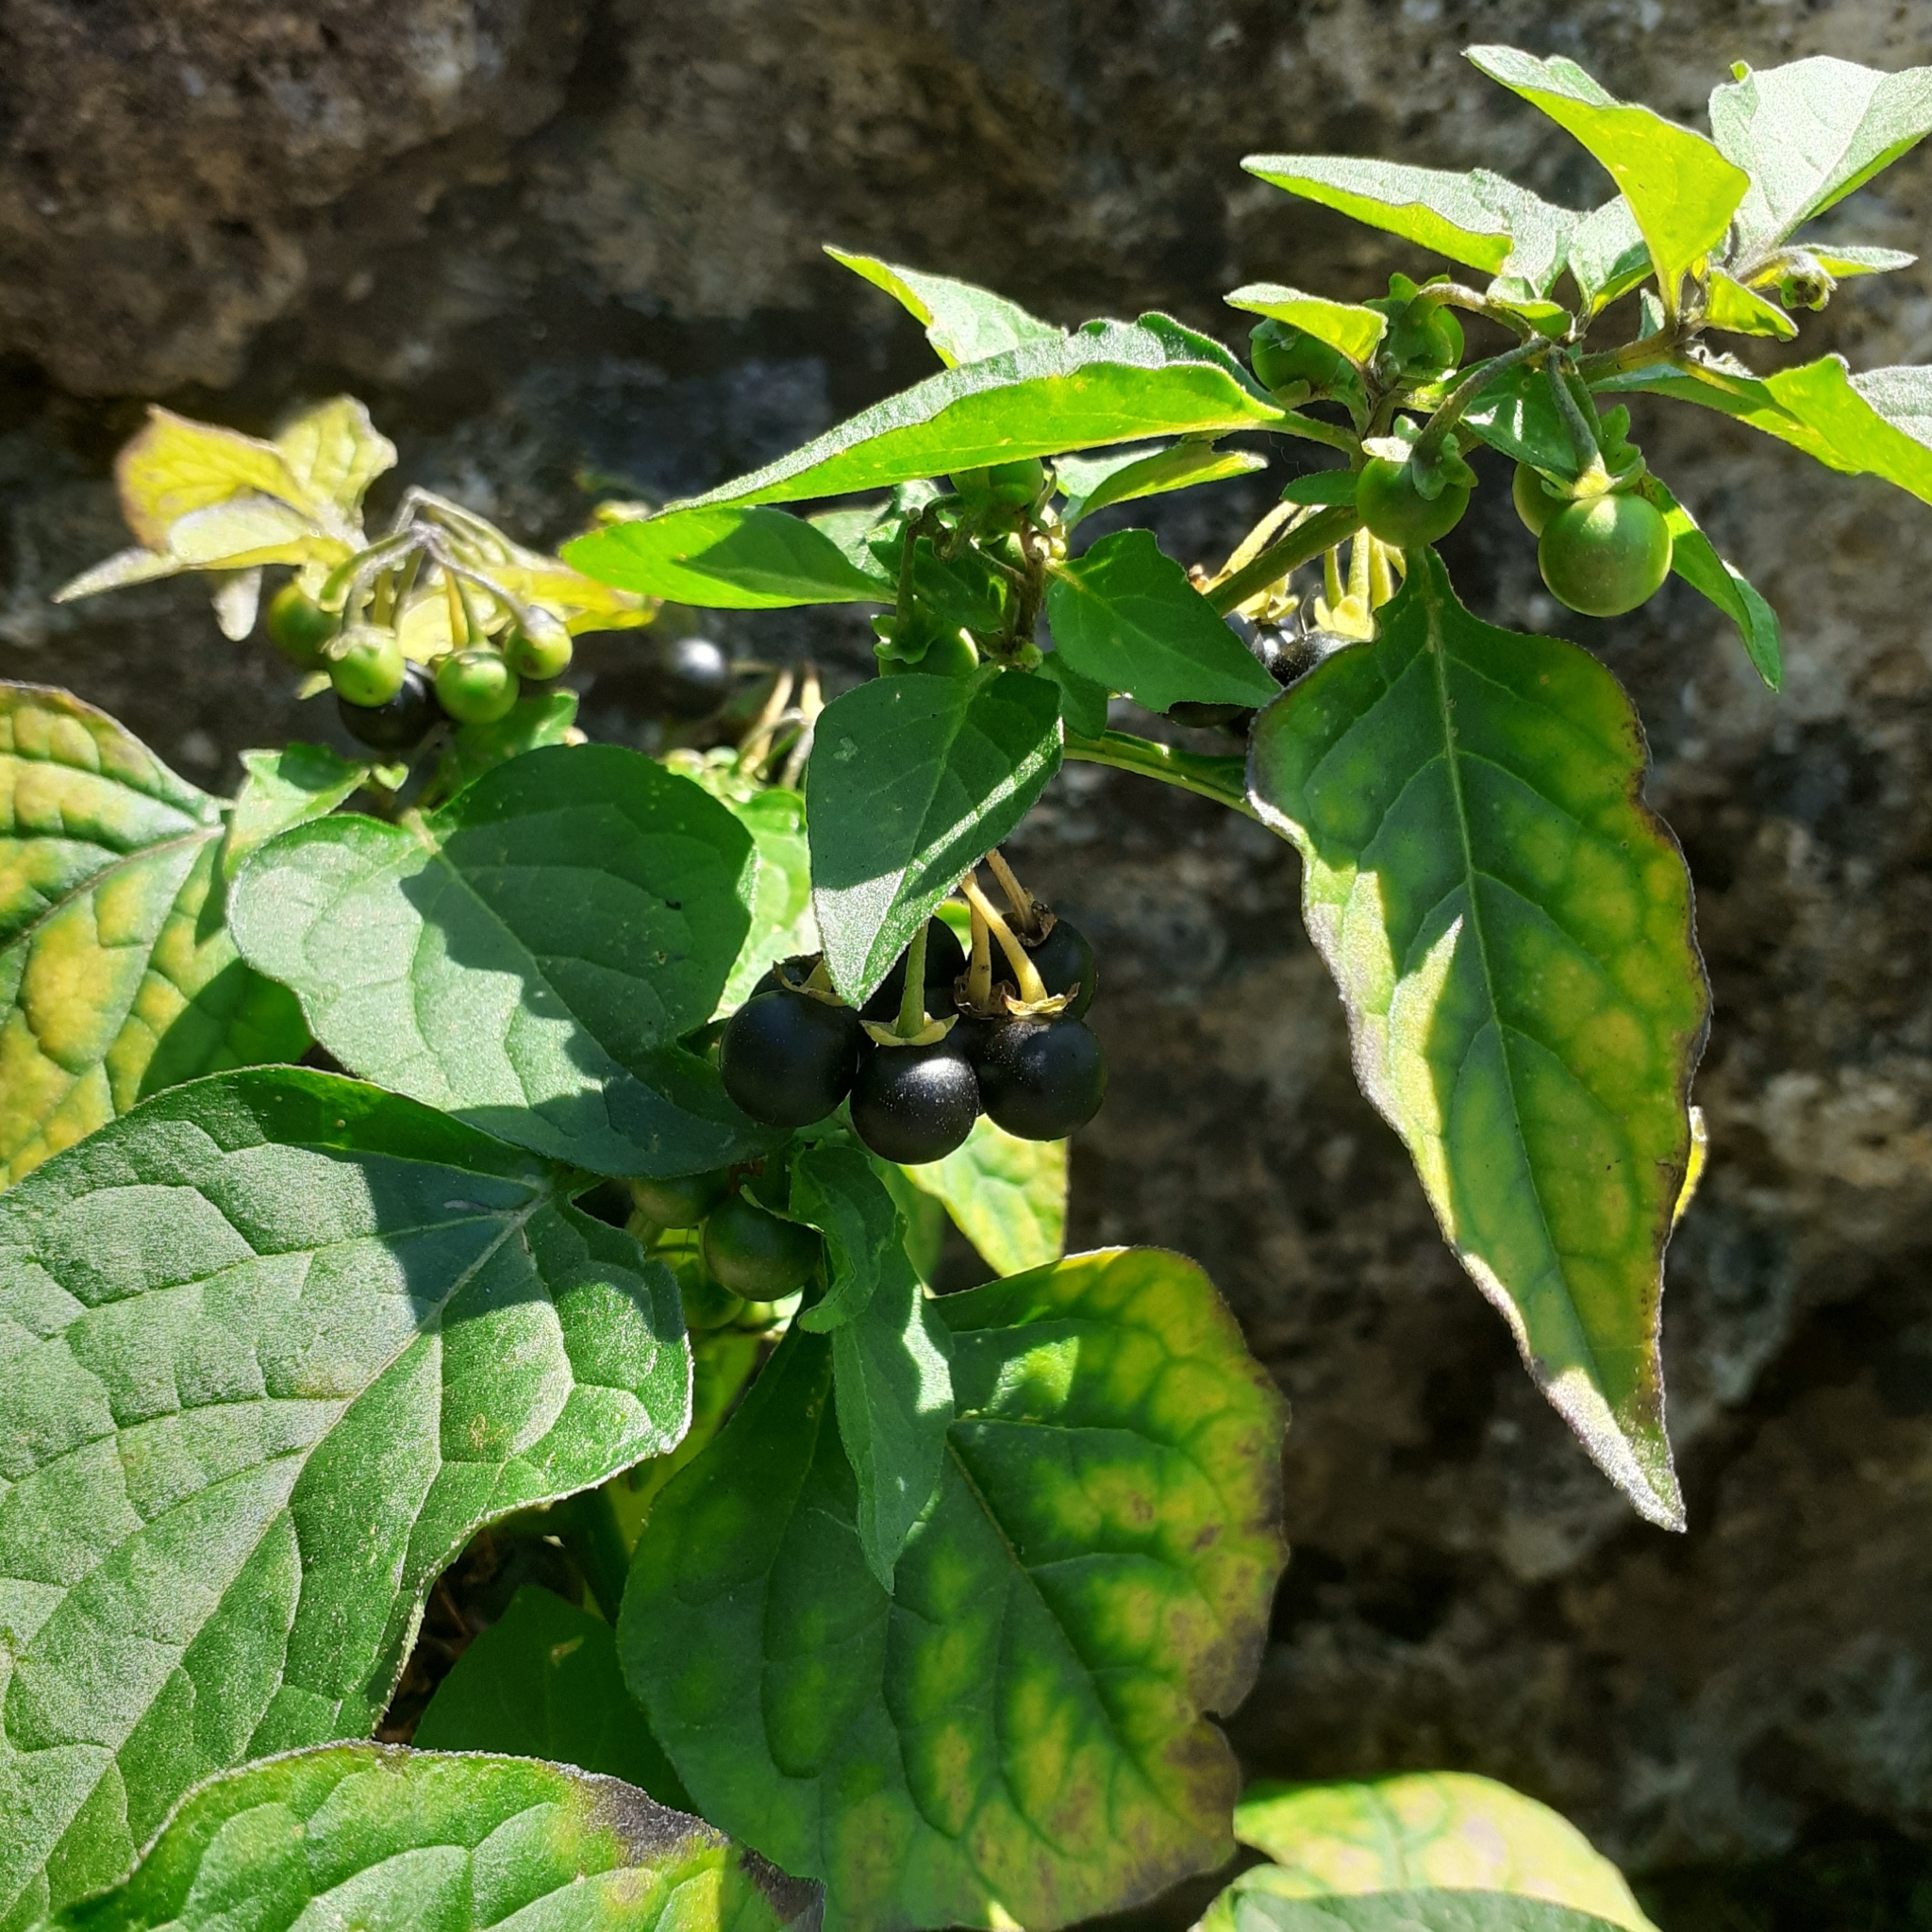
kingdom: Plantae
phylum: Tracheophyta
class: Magnoliopsida
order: Solanales
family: Solanaceae
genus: Solanum
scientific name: Solanum nigrum
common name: Black nightshade
